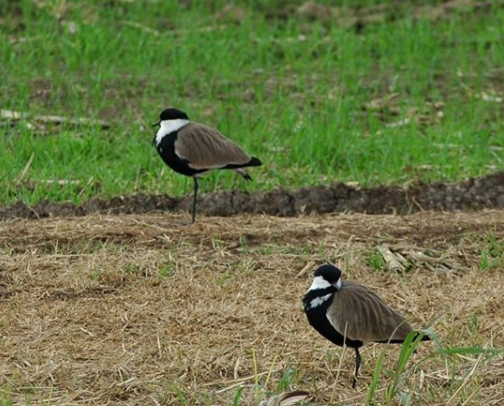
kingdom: Animalia
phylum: Chordata
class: Aves
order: Charadriiformes
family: Charadriidae
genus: Vanellus
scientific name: Vanellus spinosus
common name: Spur-winged lapwing
